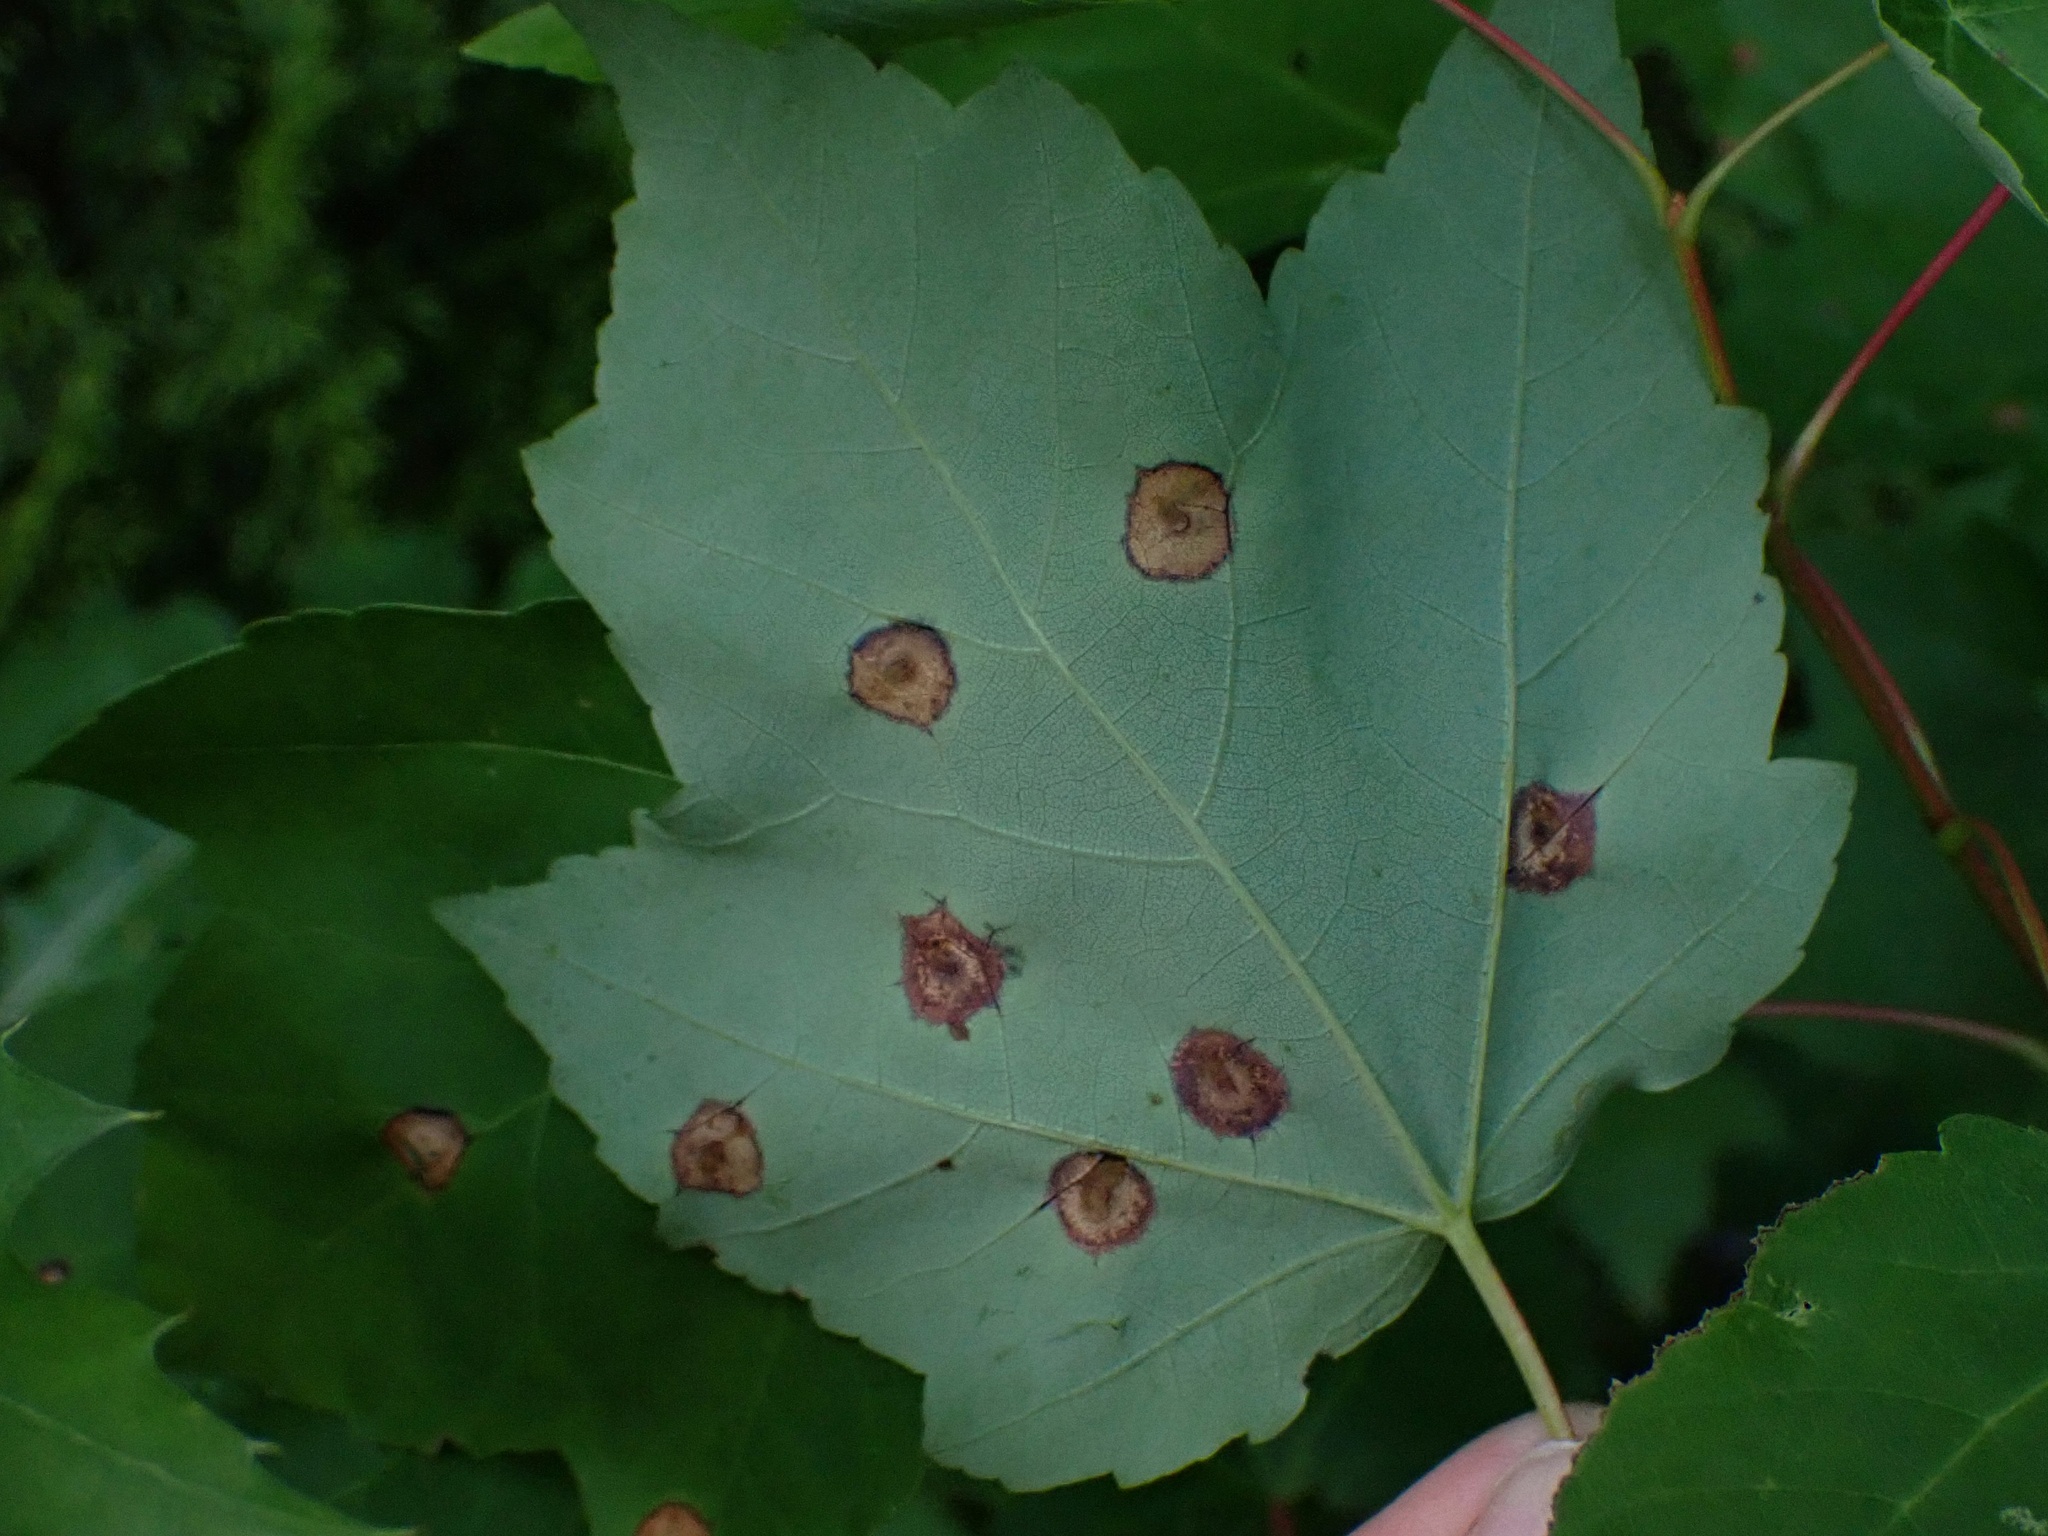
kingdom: Animalia
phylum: Arthropoda
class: Insecta
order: Diptera
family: Cecidomyiidae
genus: Acericecis
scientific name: Acericecis ocellaris
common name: Ocellate gall midge
